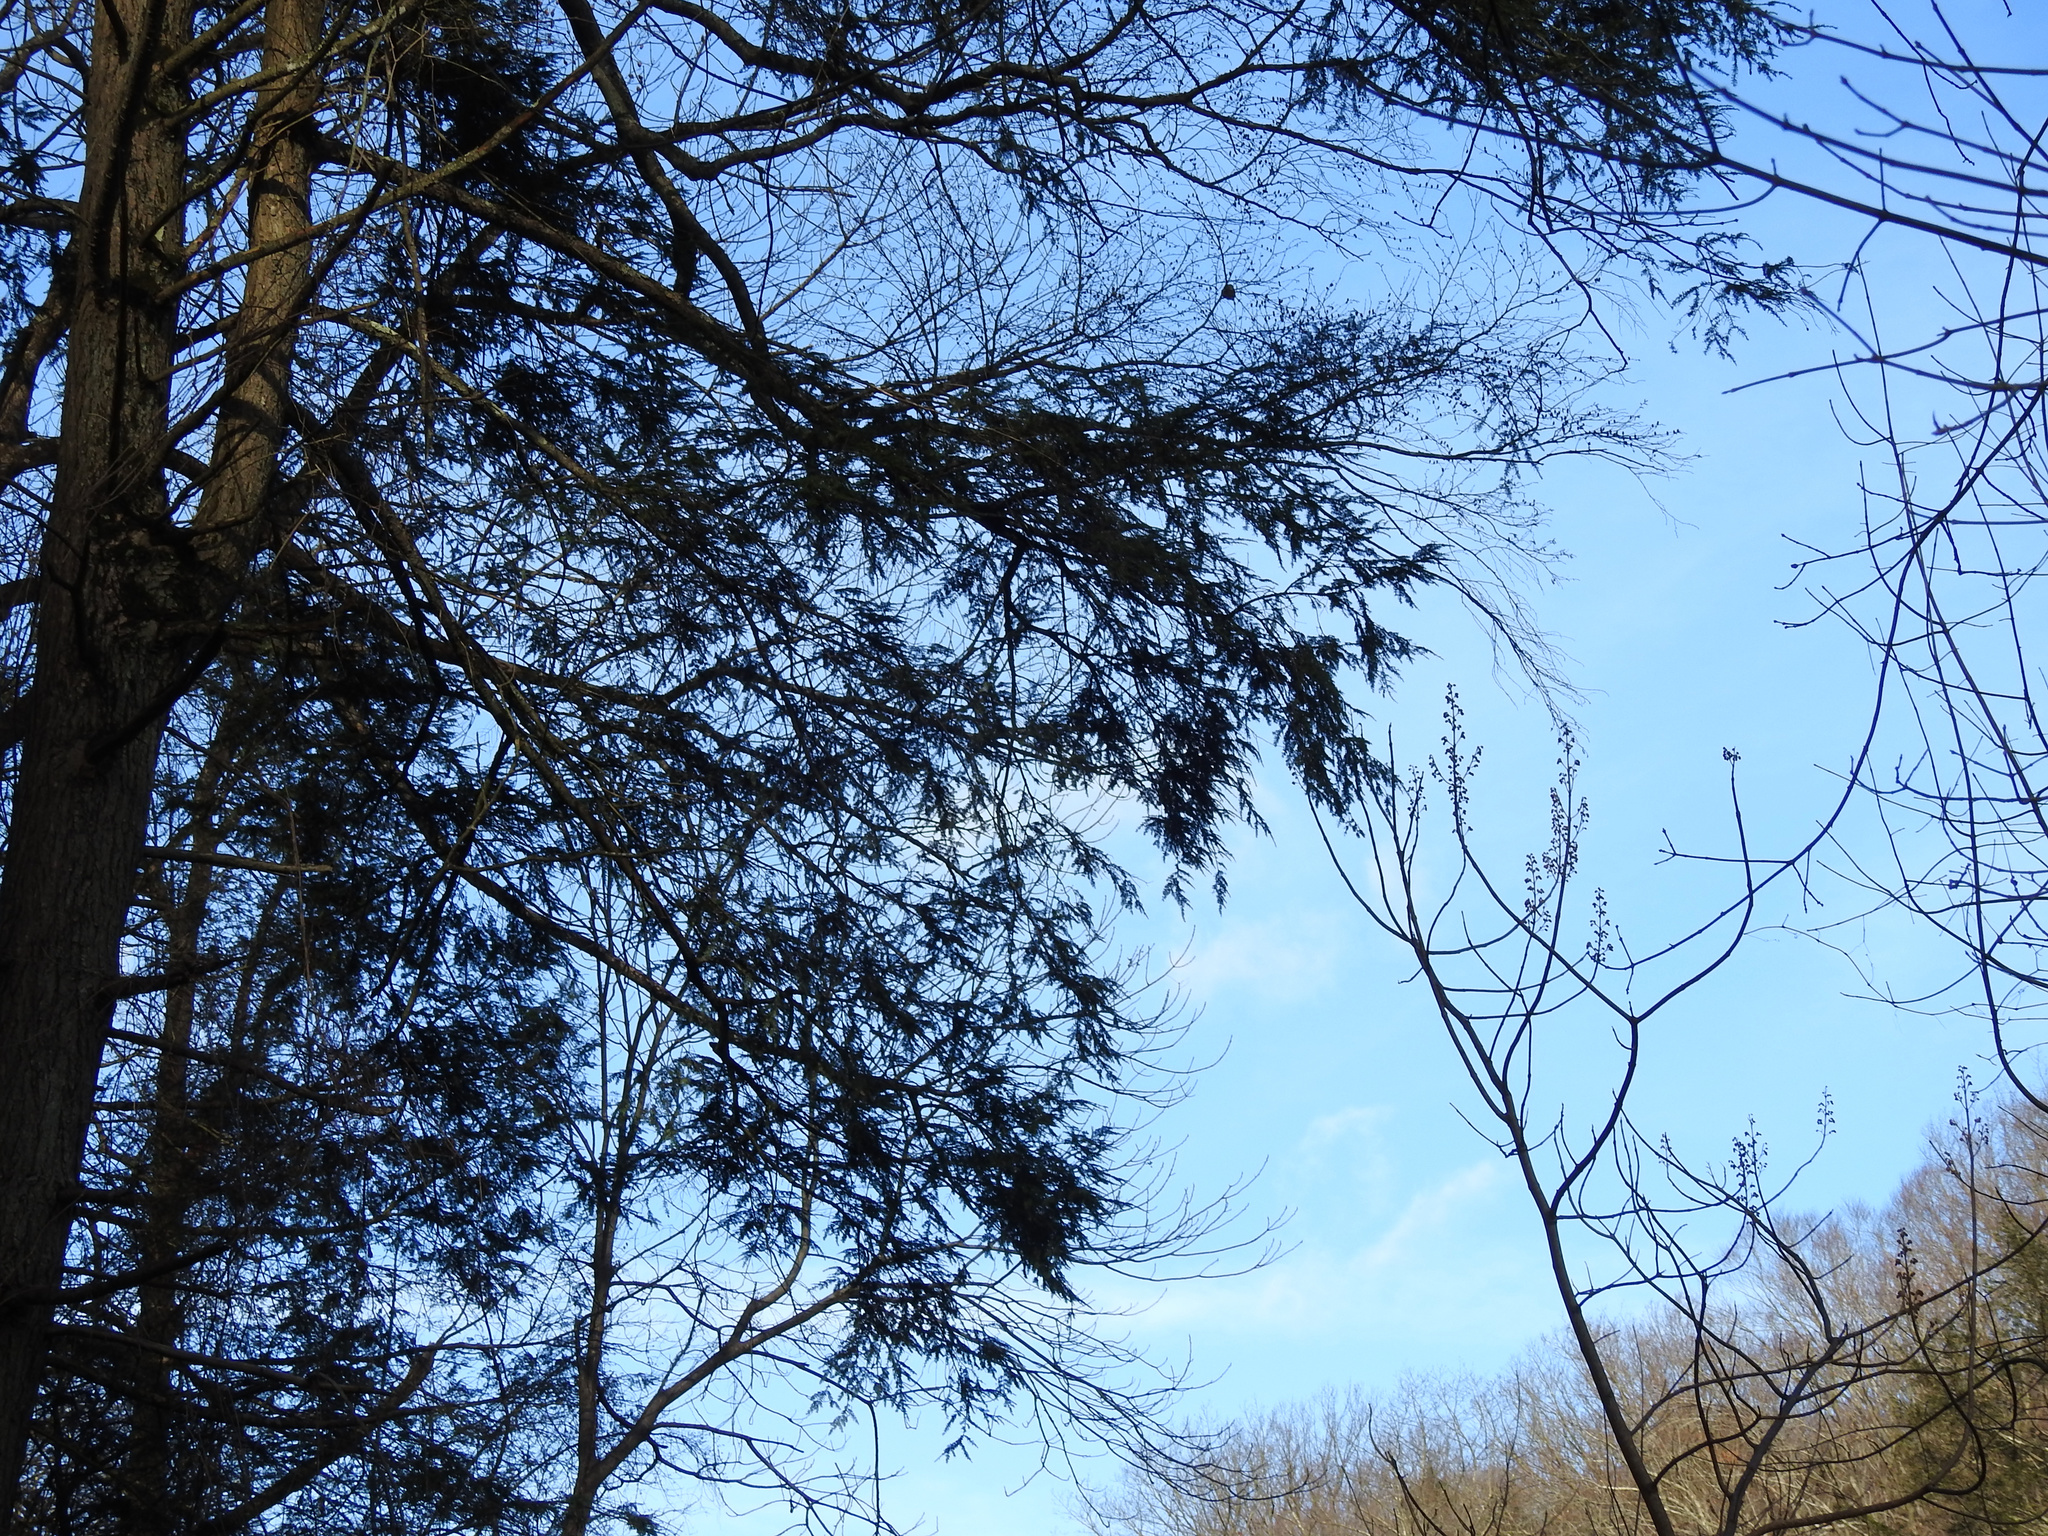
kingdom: Plantae
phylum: Tracheophyta
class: Pinopsida
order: Pinales
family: Pinaceae
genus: Tsuga
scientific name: Tsuga canadensis
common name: Eastern hemlock
